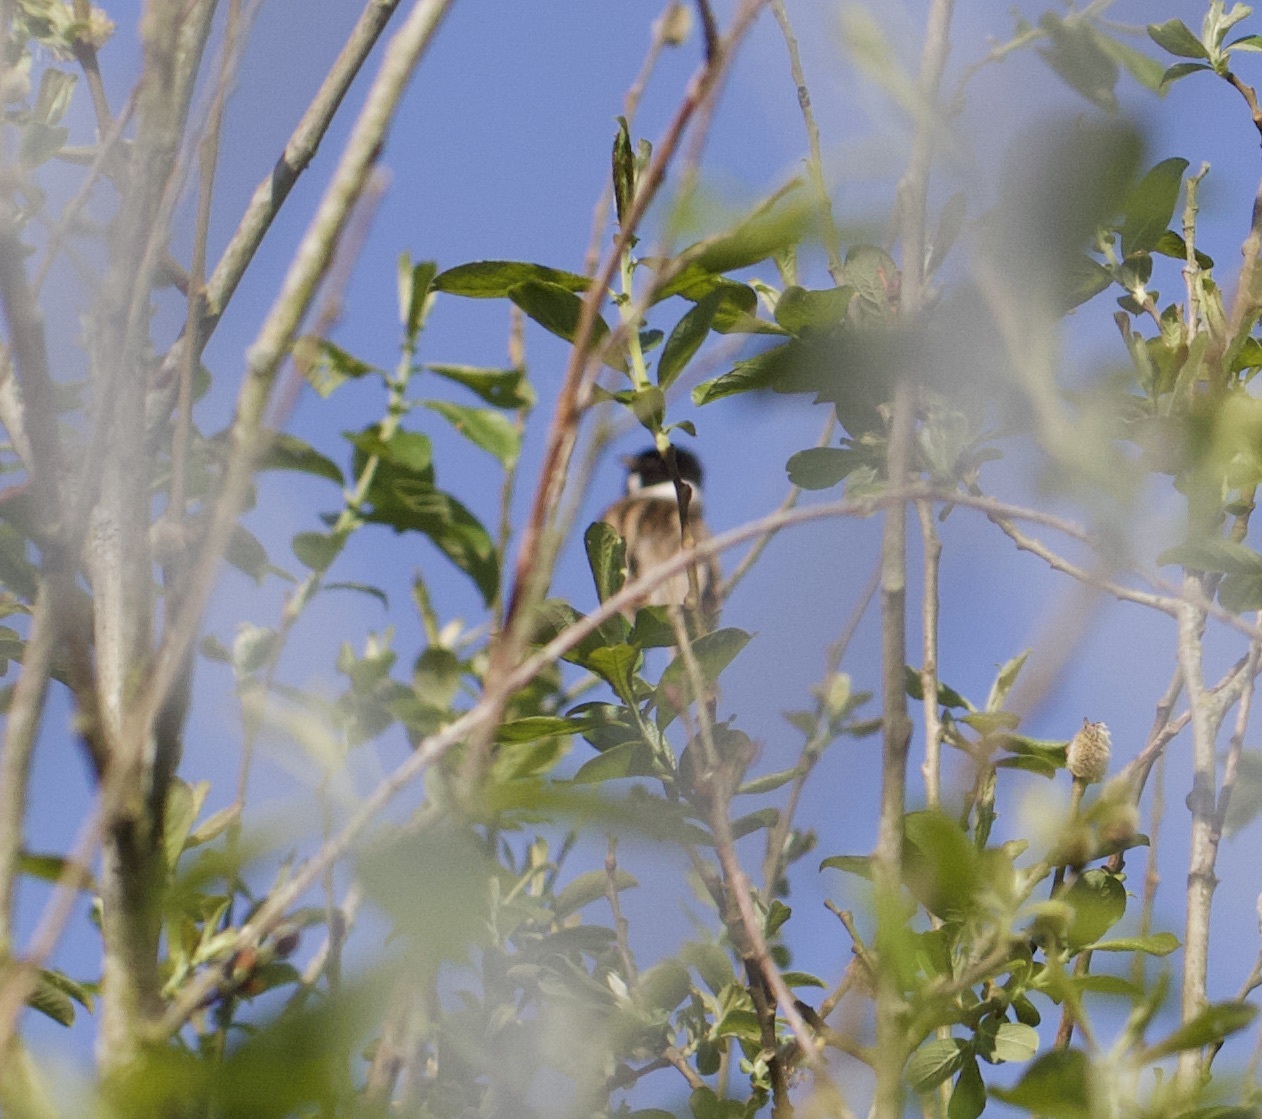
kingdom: Animalia
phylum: Chordata
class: Aves
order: Passeriformes
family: Emberizidae
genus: Emberiza
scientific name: Emberiza schoeniclus
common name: Reed bunting
